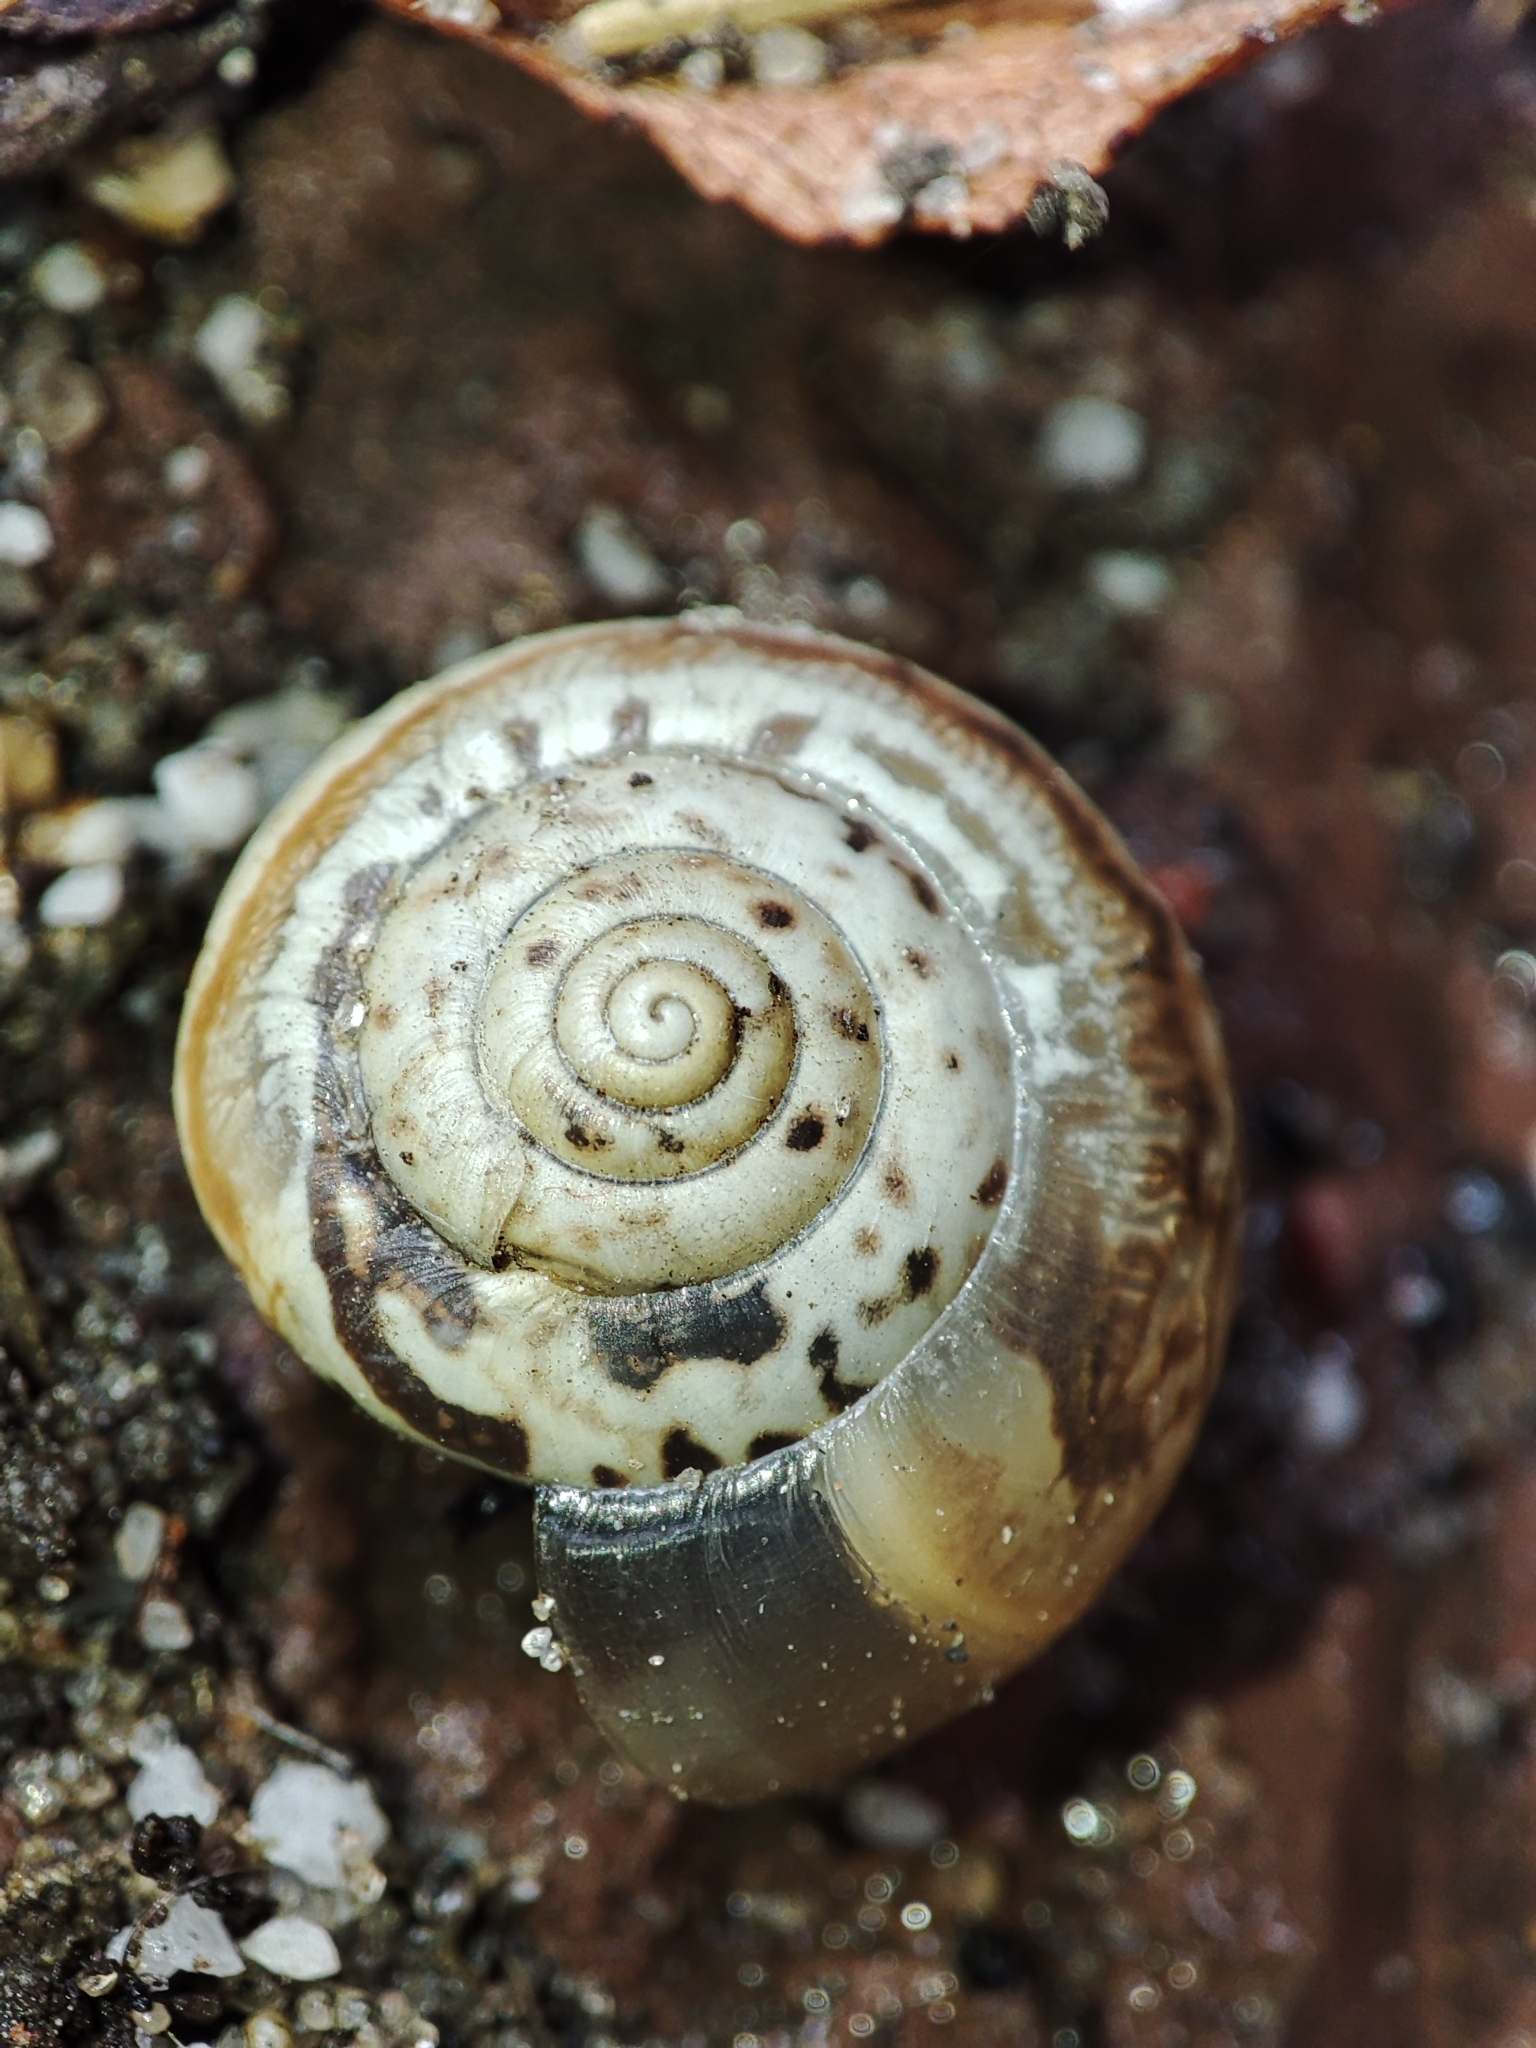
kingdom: Animalia
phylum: Mollusca
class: Gastropoda
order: Stylommatophora
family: Hygromiidae
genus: Monacha
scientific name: Monacha cartusiana
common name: Carthusian snail
